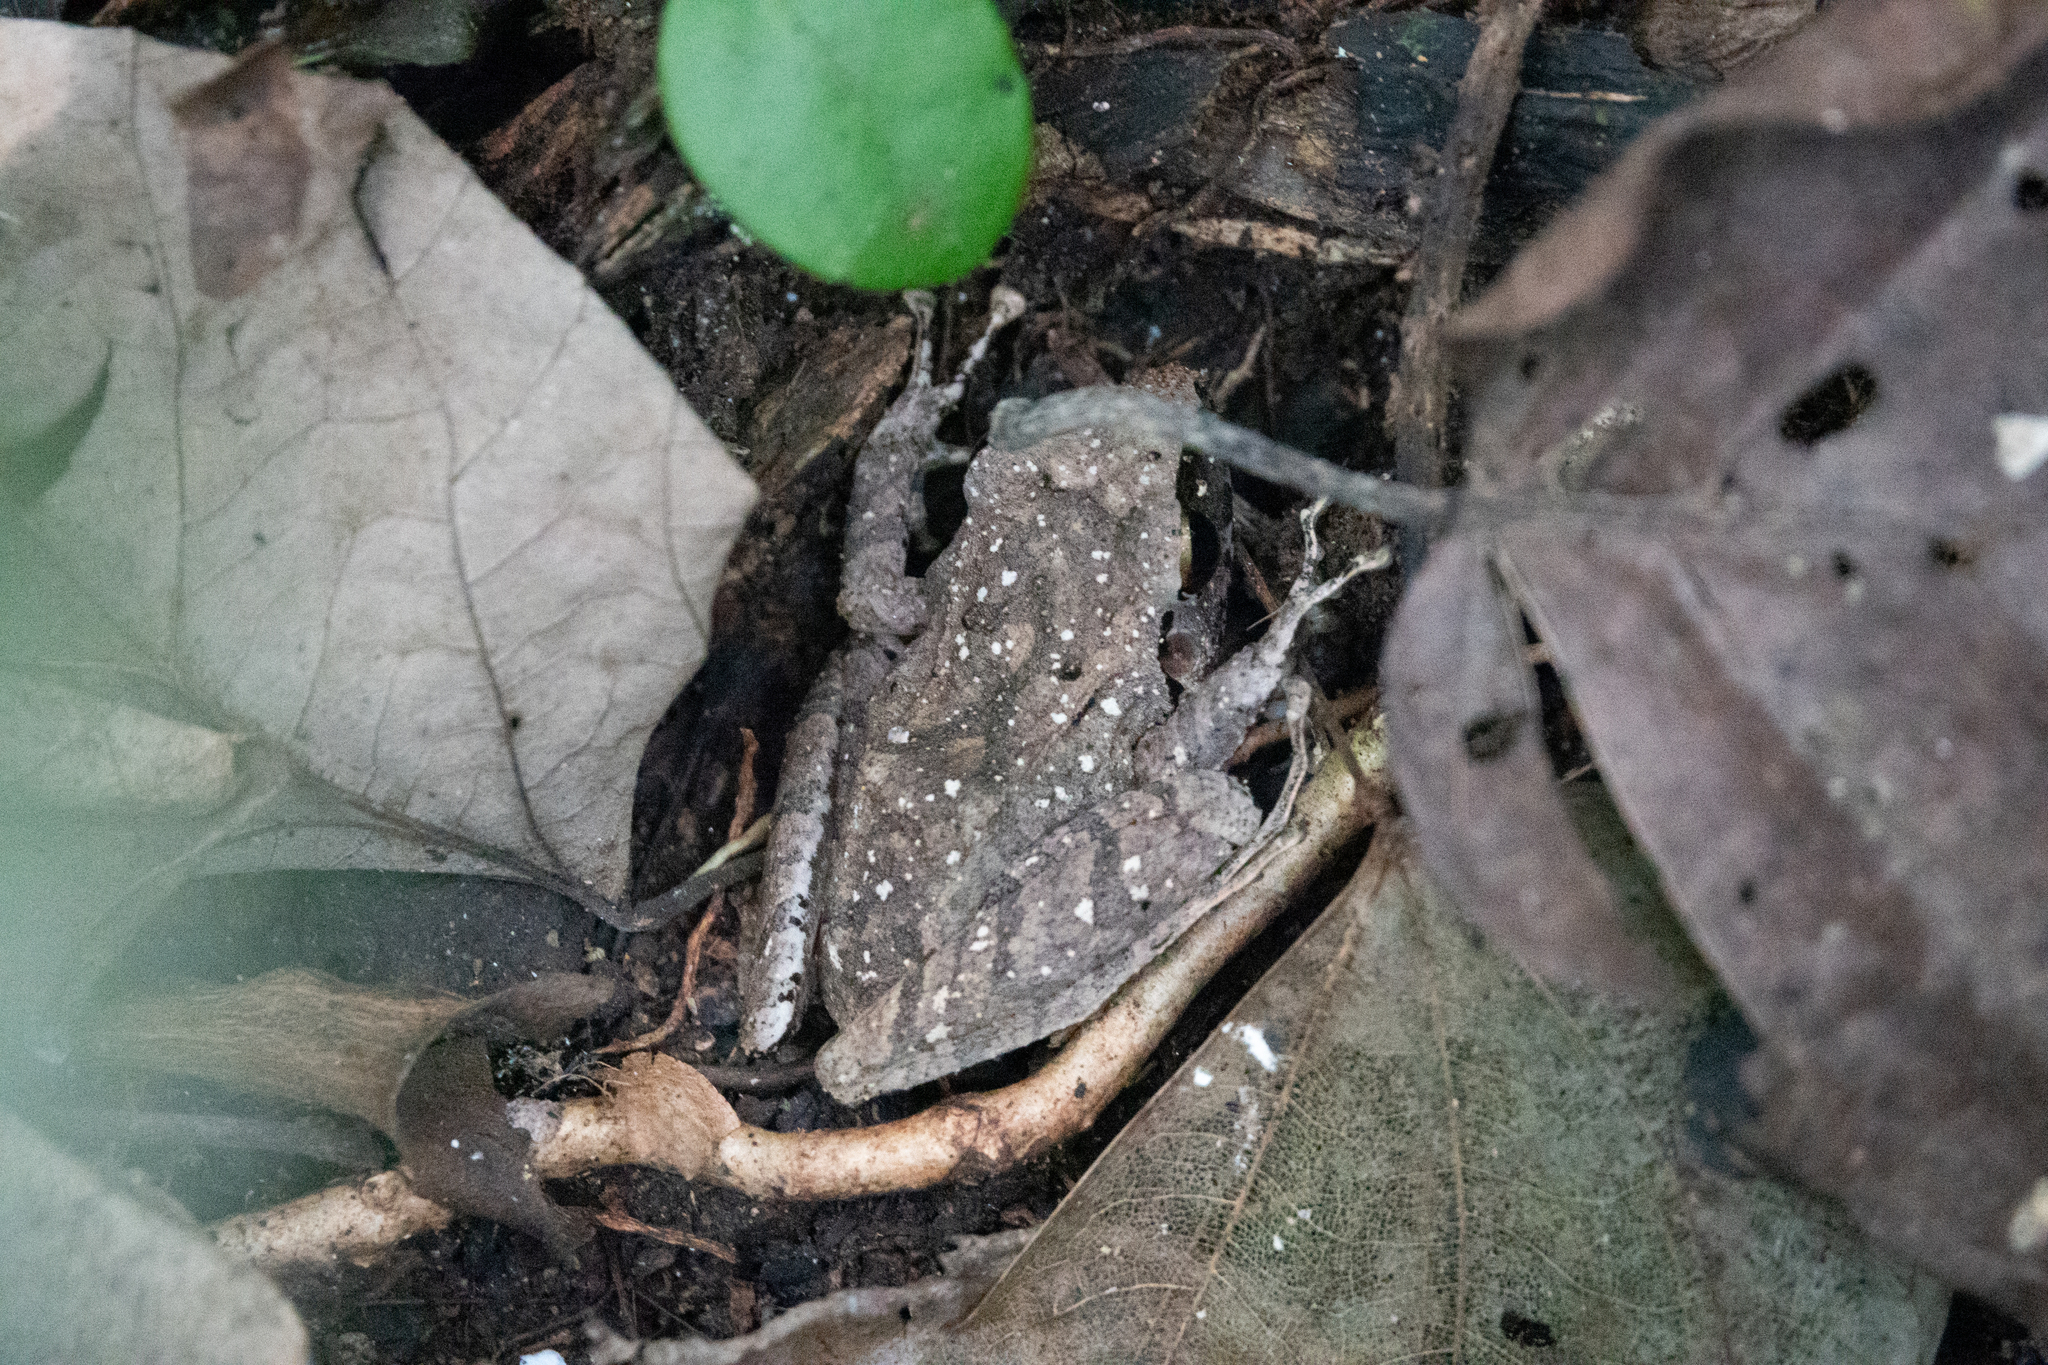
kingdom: Animalia
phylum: Chordata
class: Amphibia
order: Anura
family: Craugastoridae
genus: Pristimantis
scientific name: Pristimantis achatinus
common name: Cachabi robber frog
